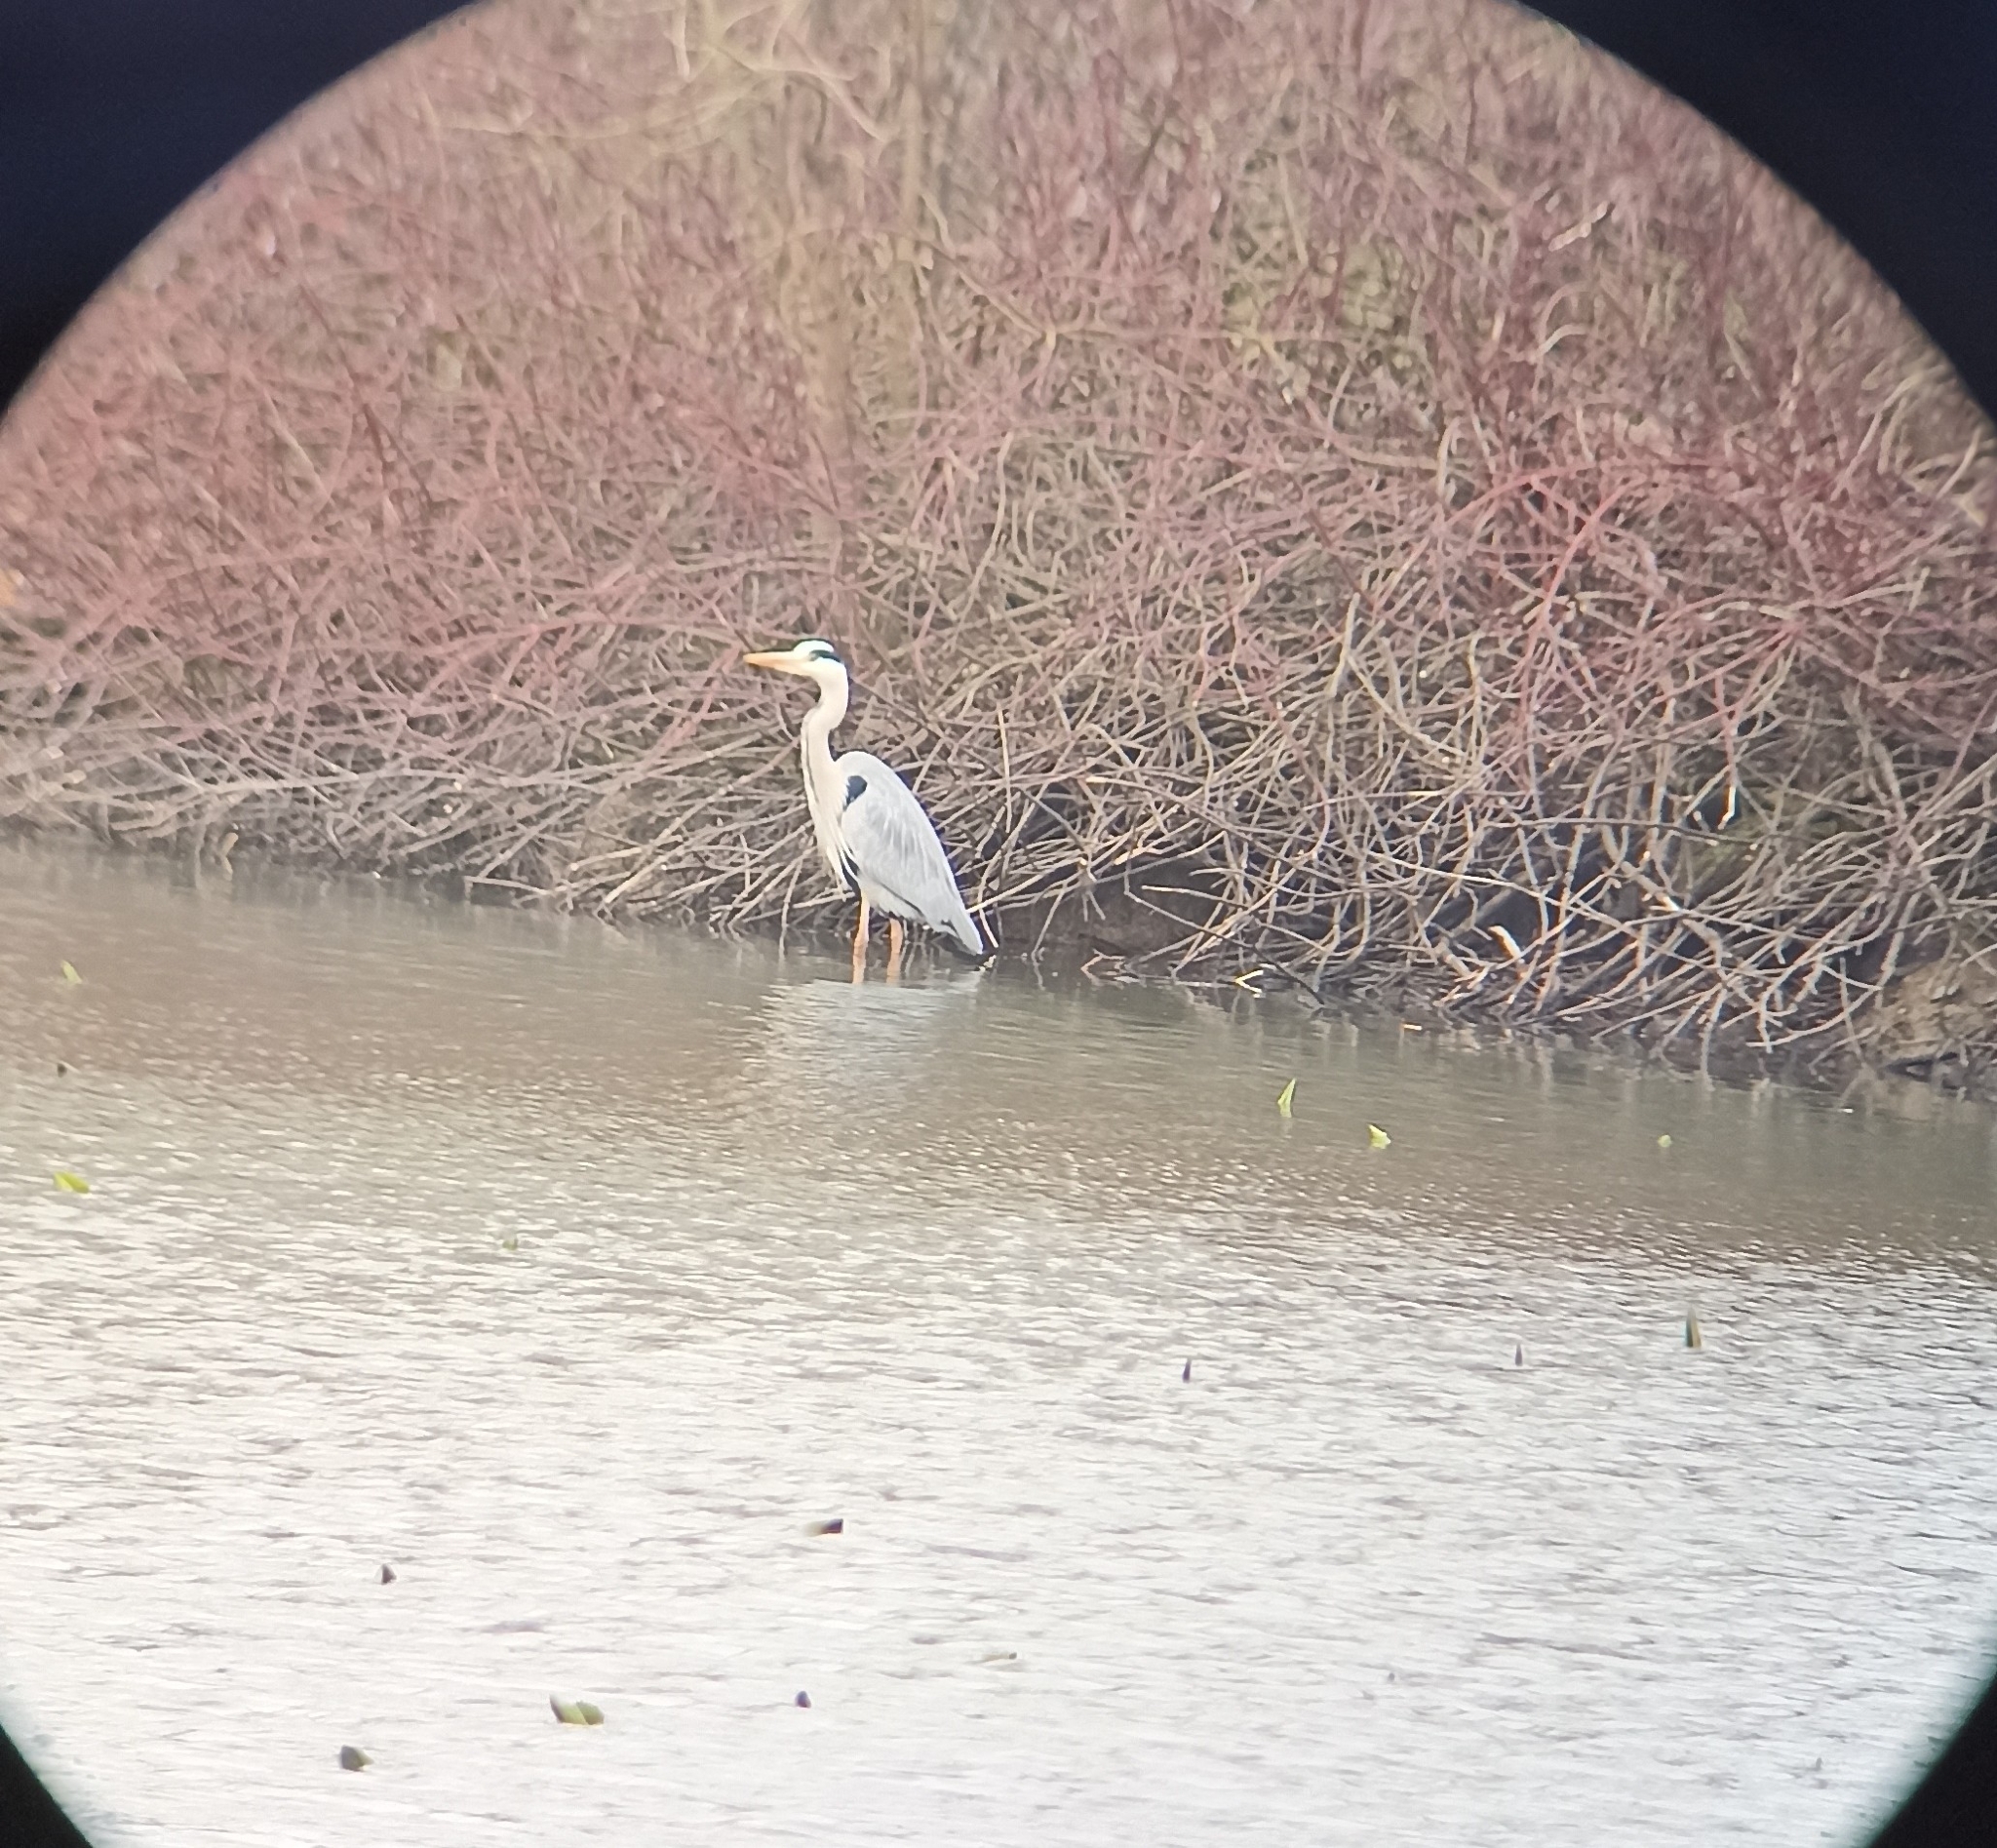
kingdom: Animalia
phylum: Chordata
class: Aves
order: Pelecaniformes
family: Ardeidae
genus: Ardea
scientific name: Ardea cinerea
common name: Grey heron
